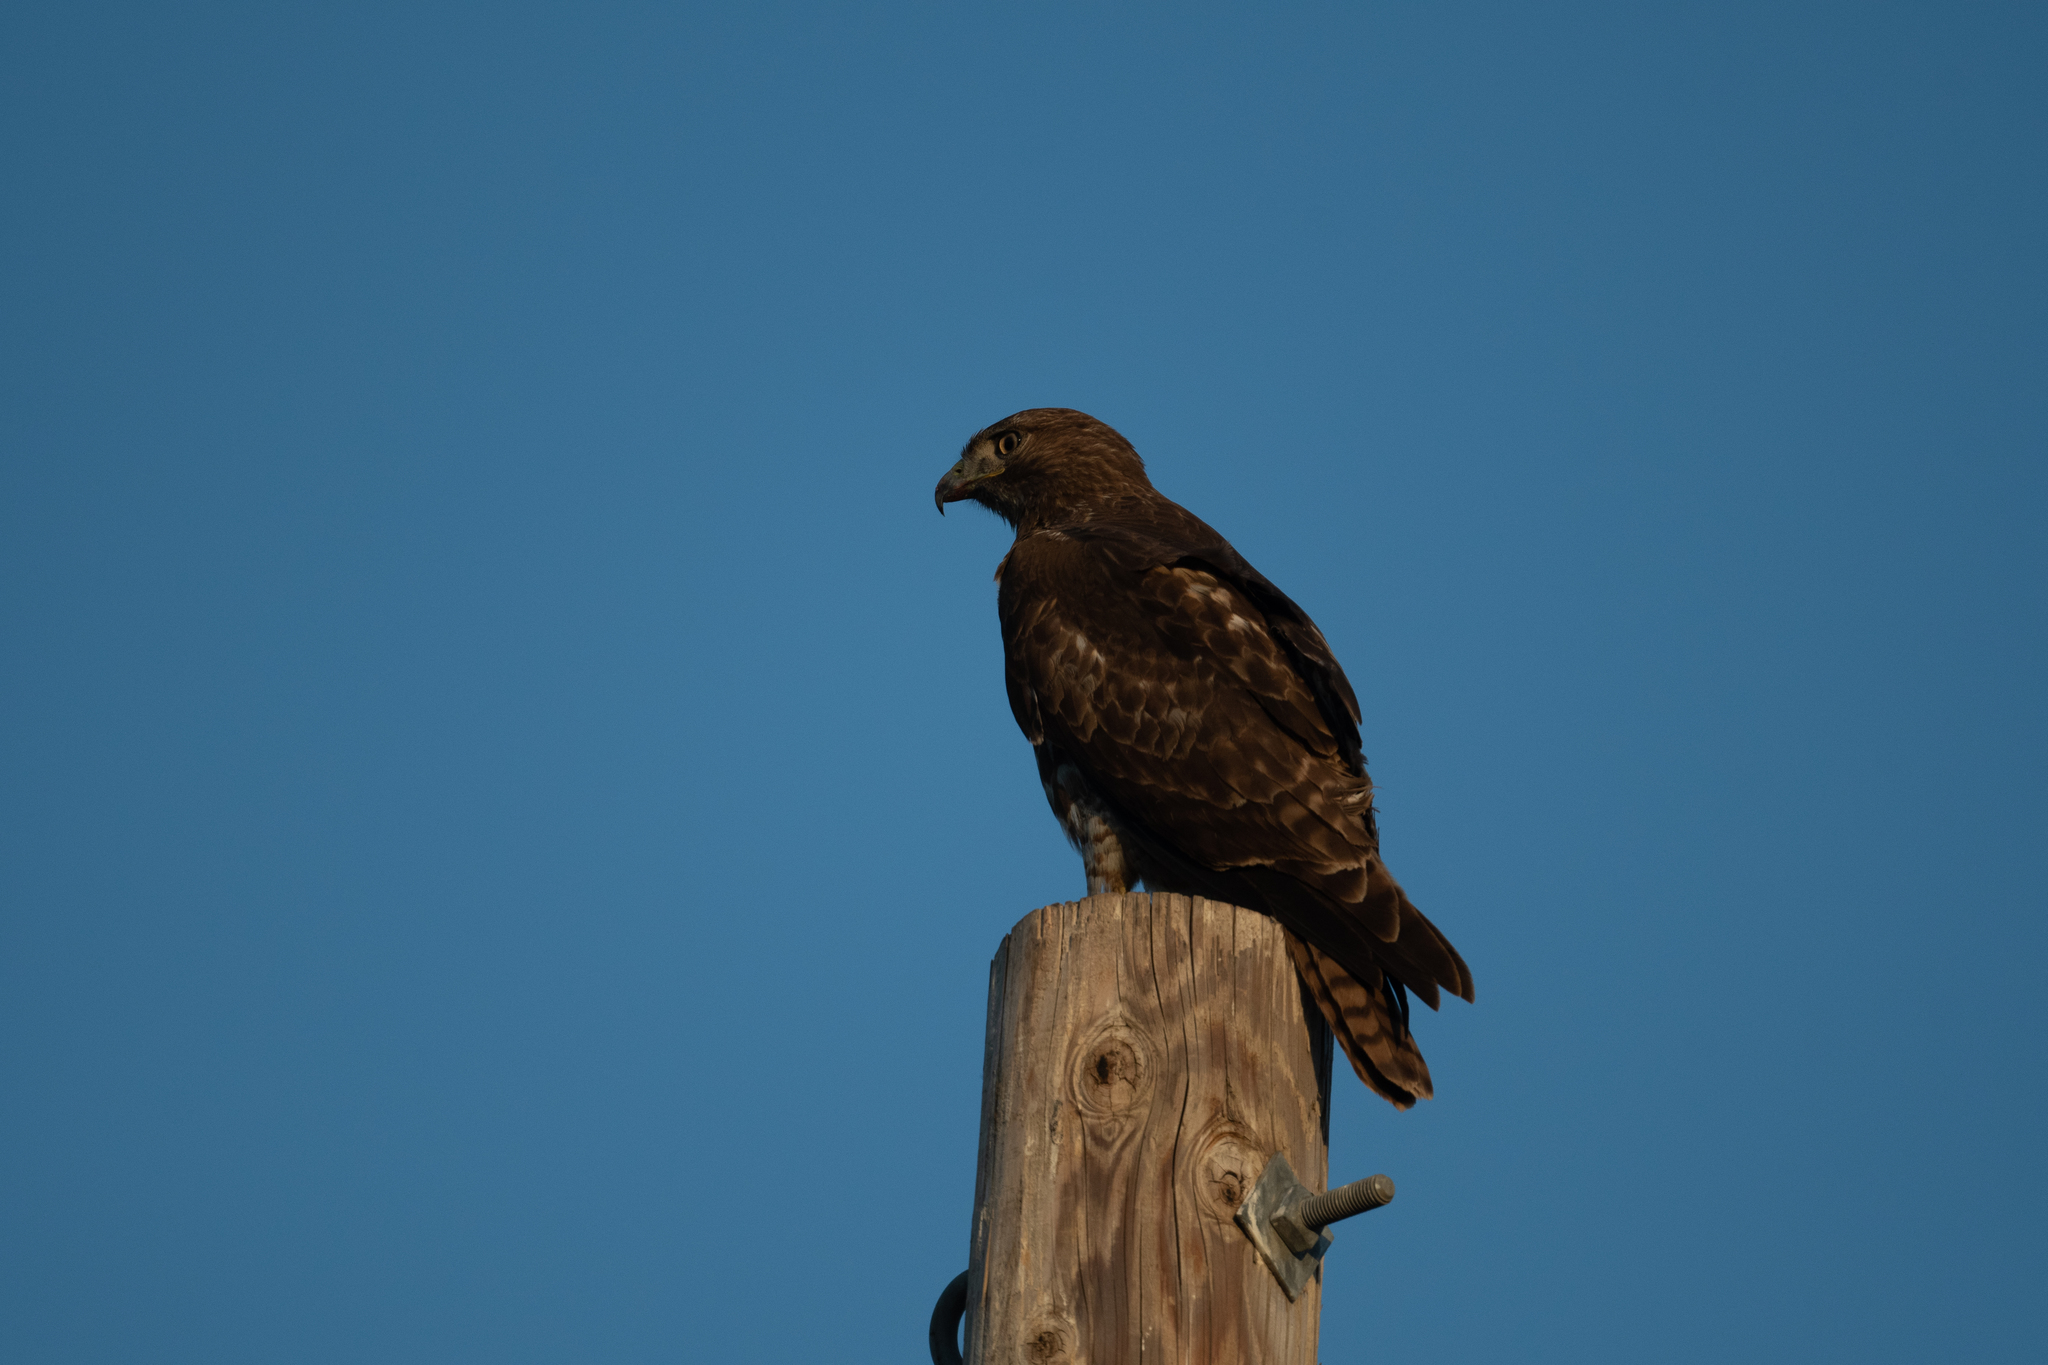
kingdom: Animalia
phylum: Chordata
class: Aves
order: Accipitriformes
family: Accipitridae
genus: Buteo
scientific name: Buteo jamaicensis
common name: Red-tailed hawk
